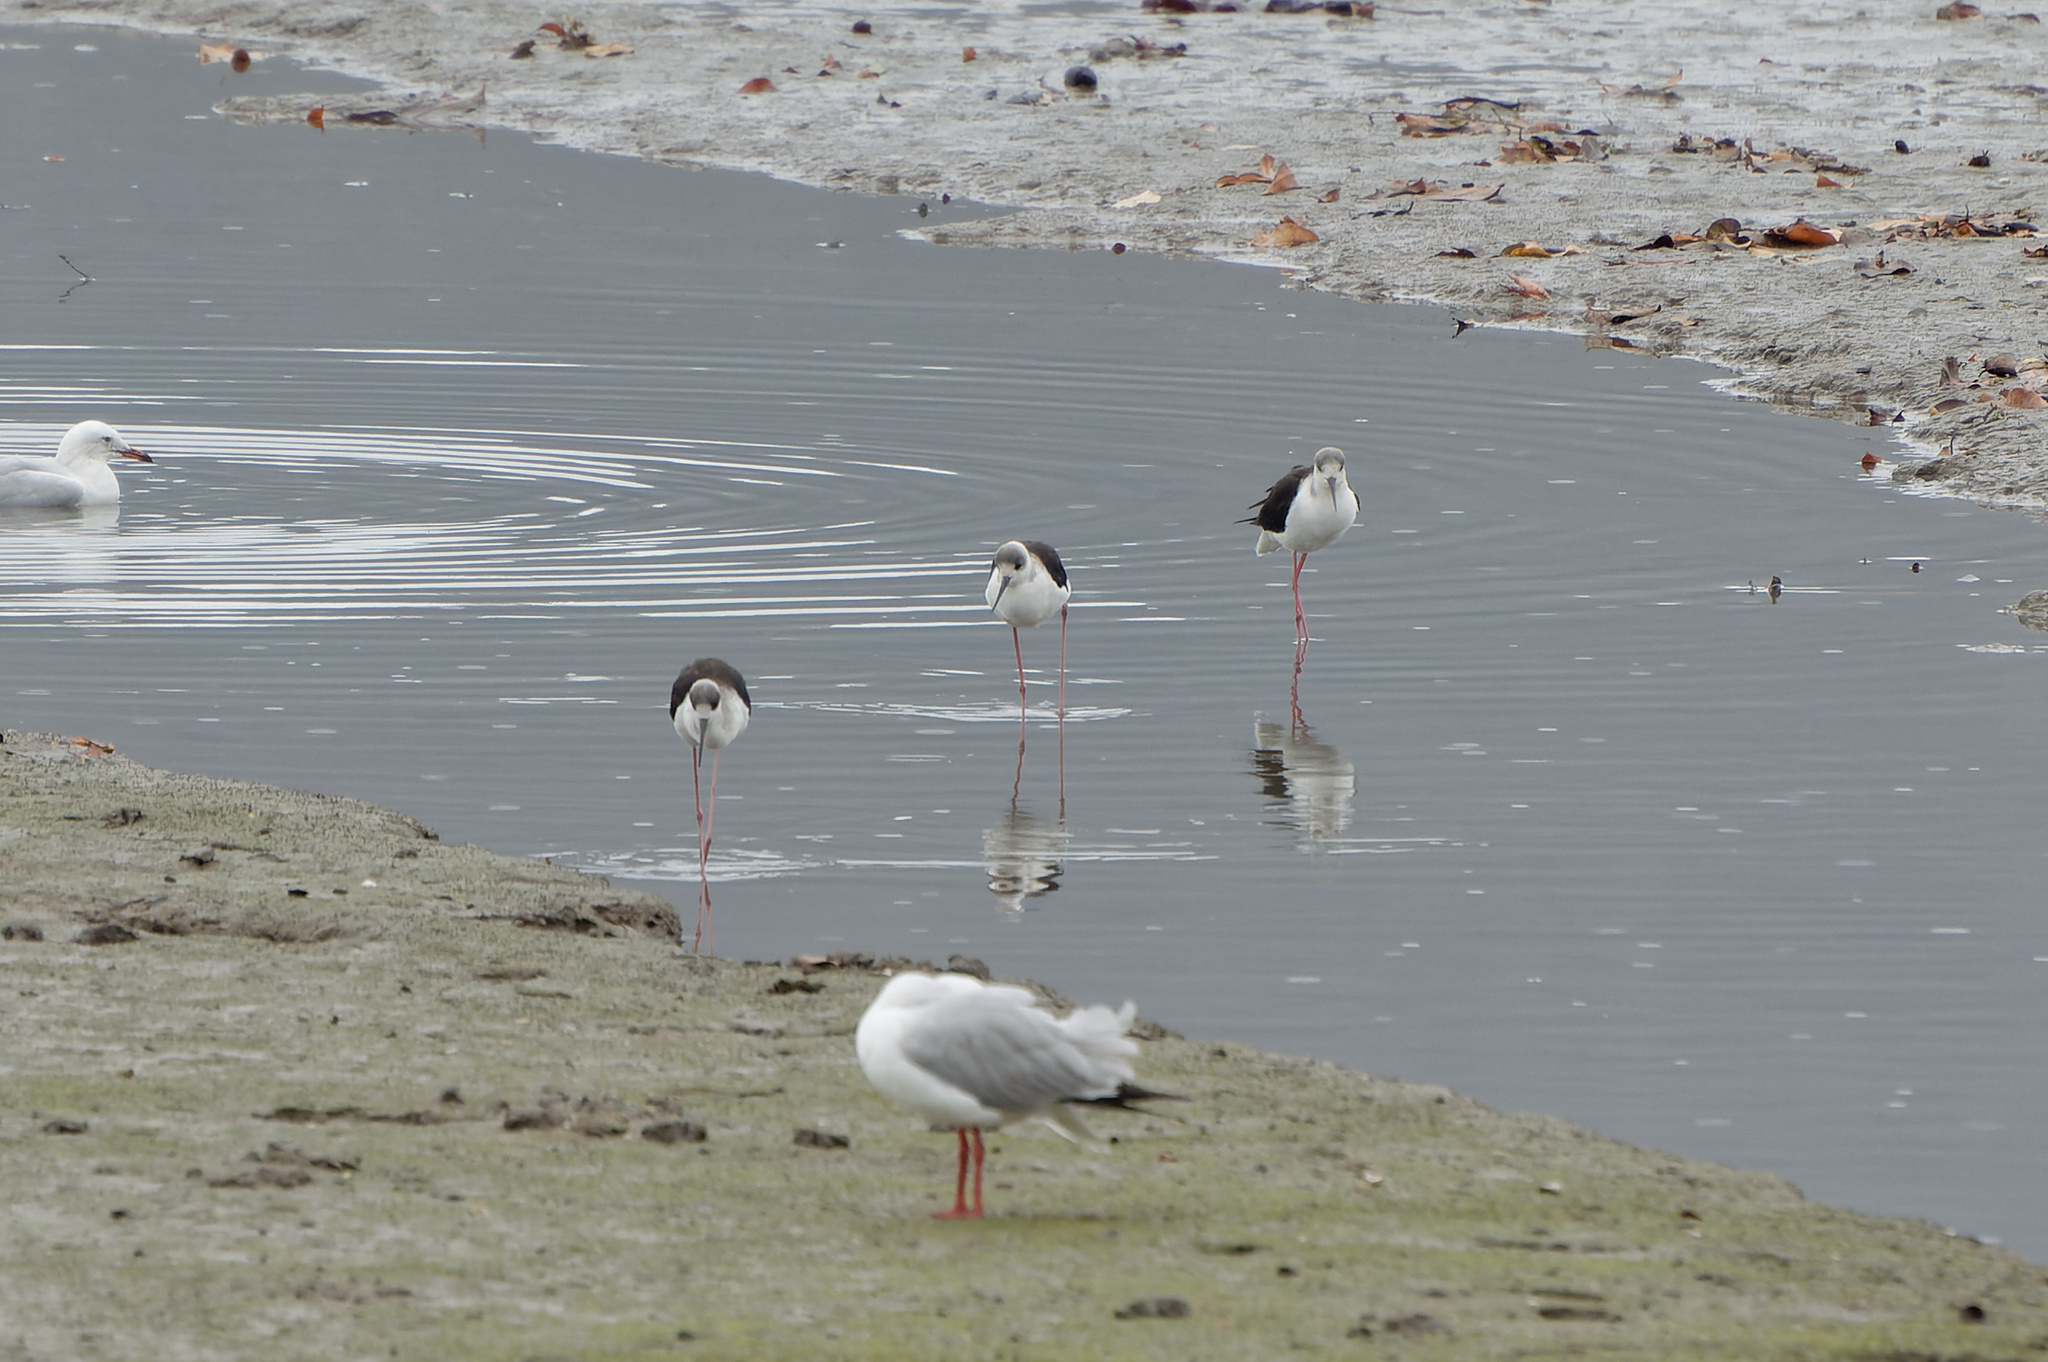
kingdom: Animalia
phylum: Chordata
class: Aves
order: Charadriiformes
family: Recurvirostridae
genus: Himantopus
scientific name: Himantopus leucocephalus
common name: White-headed stilt
